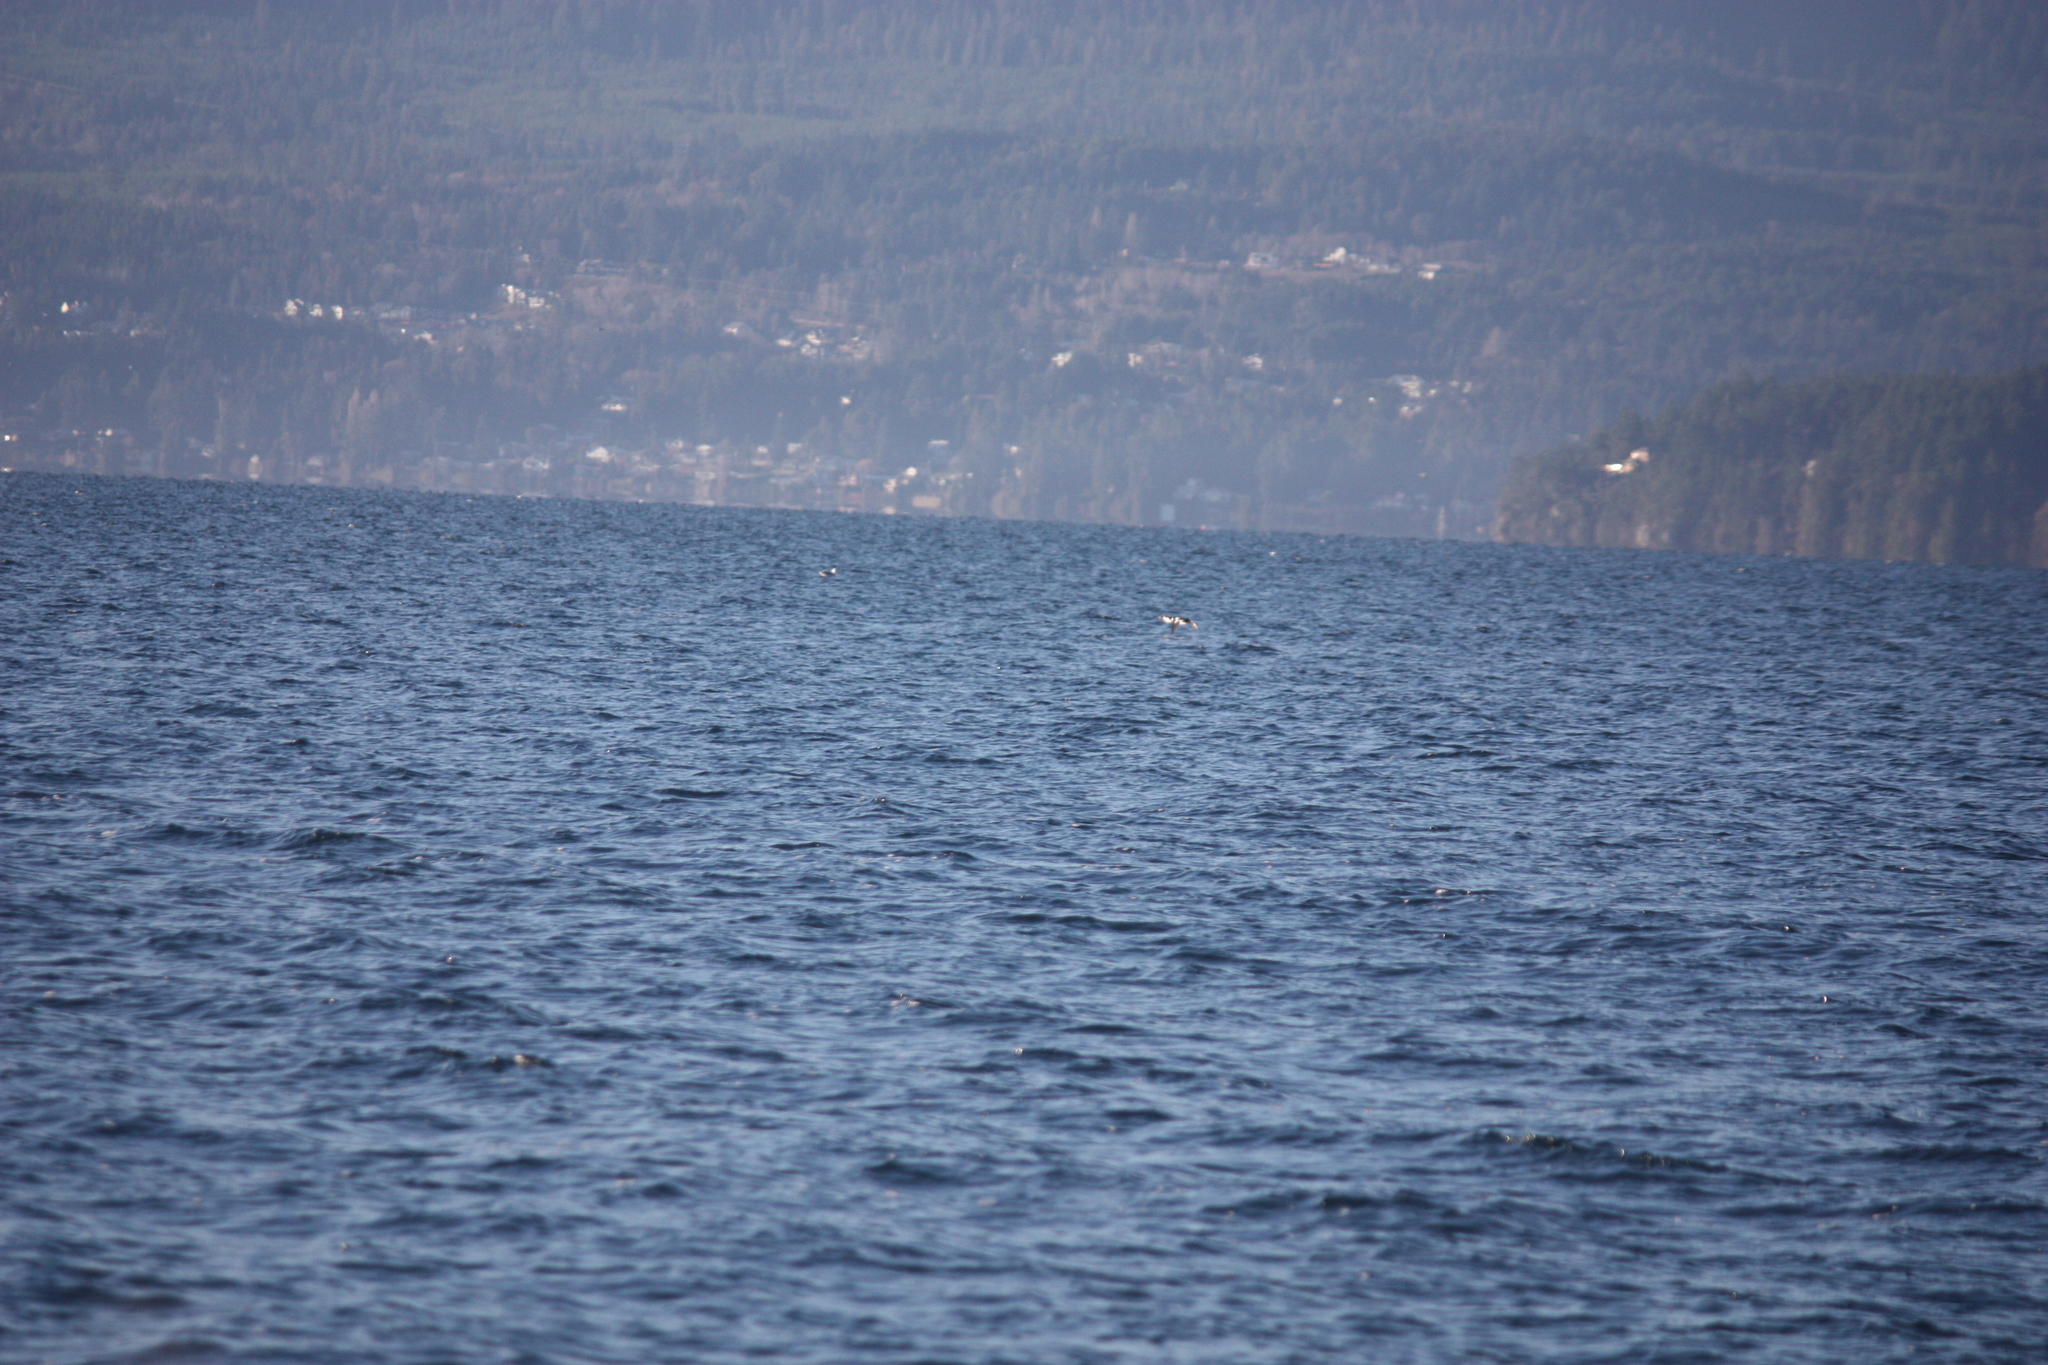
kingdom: Animalia
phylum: Chordata
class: Aves
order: Anseriformes
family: Anatidae
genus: Bucephala
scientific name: Bucephala islandica
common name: Barrow's goldeneye
